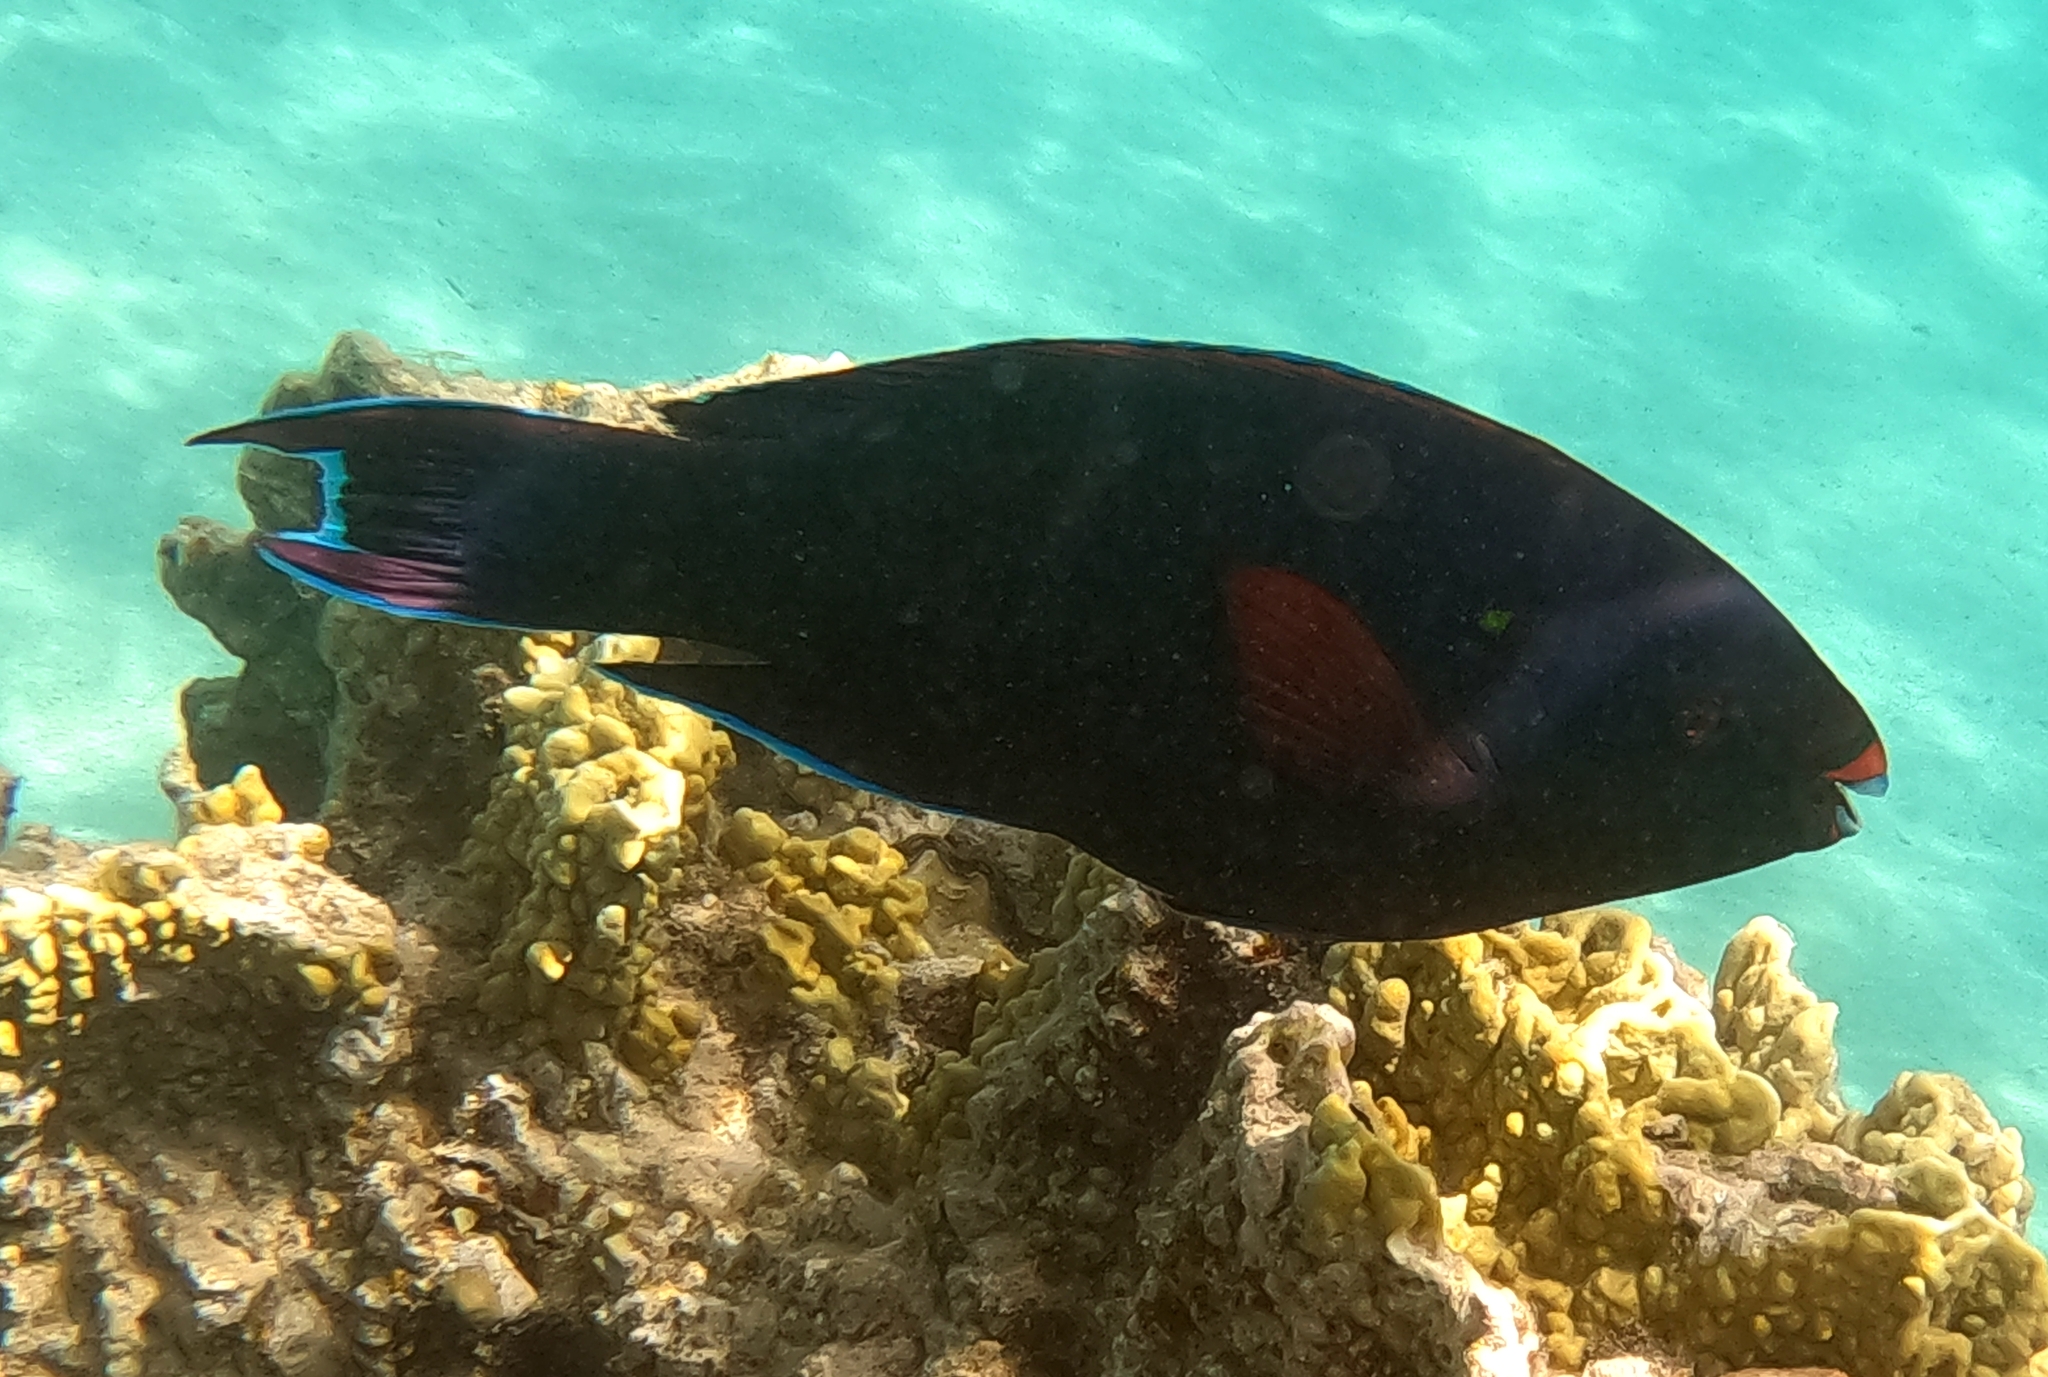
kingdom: Animalia
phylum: Chordata
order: Perciformes
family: Scaridae
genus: Scarus
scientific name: Scarus niger
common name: Dusky parrotfish
